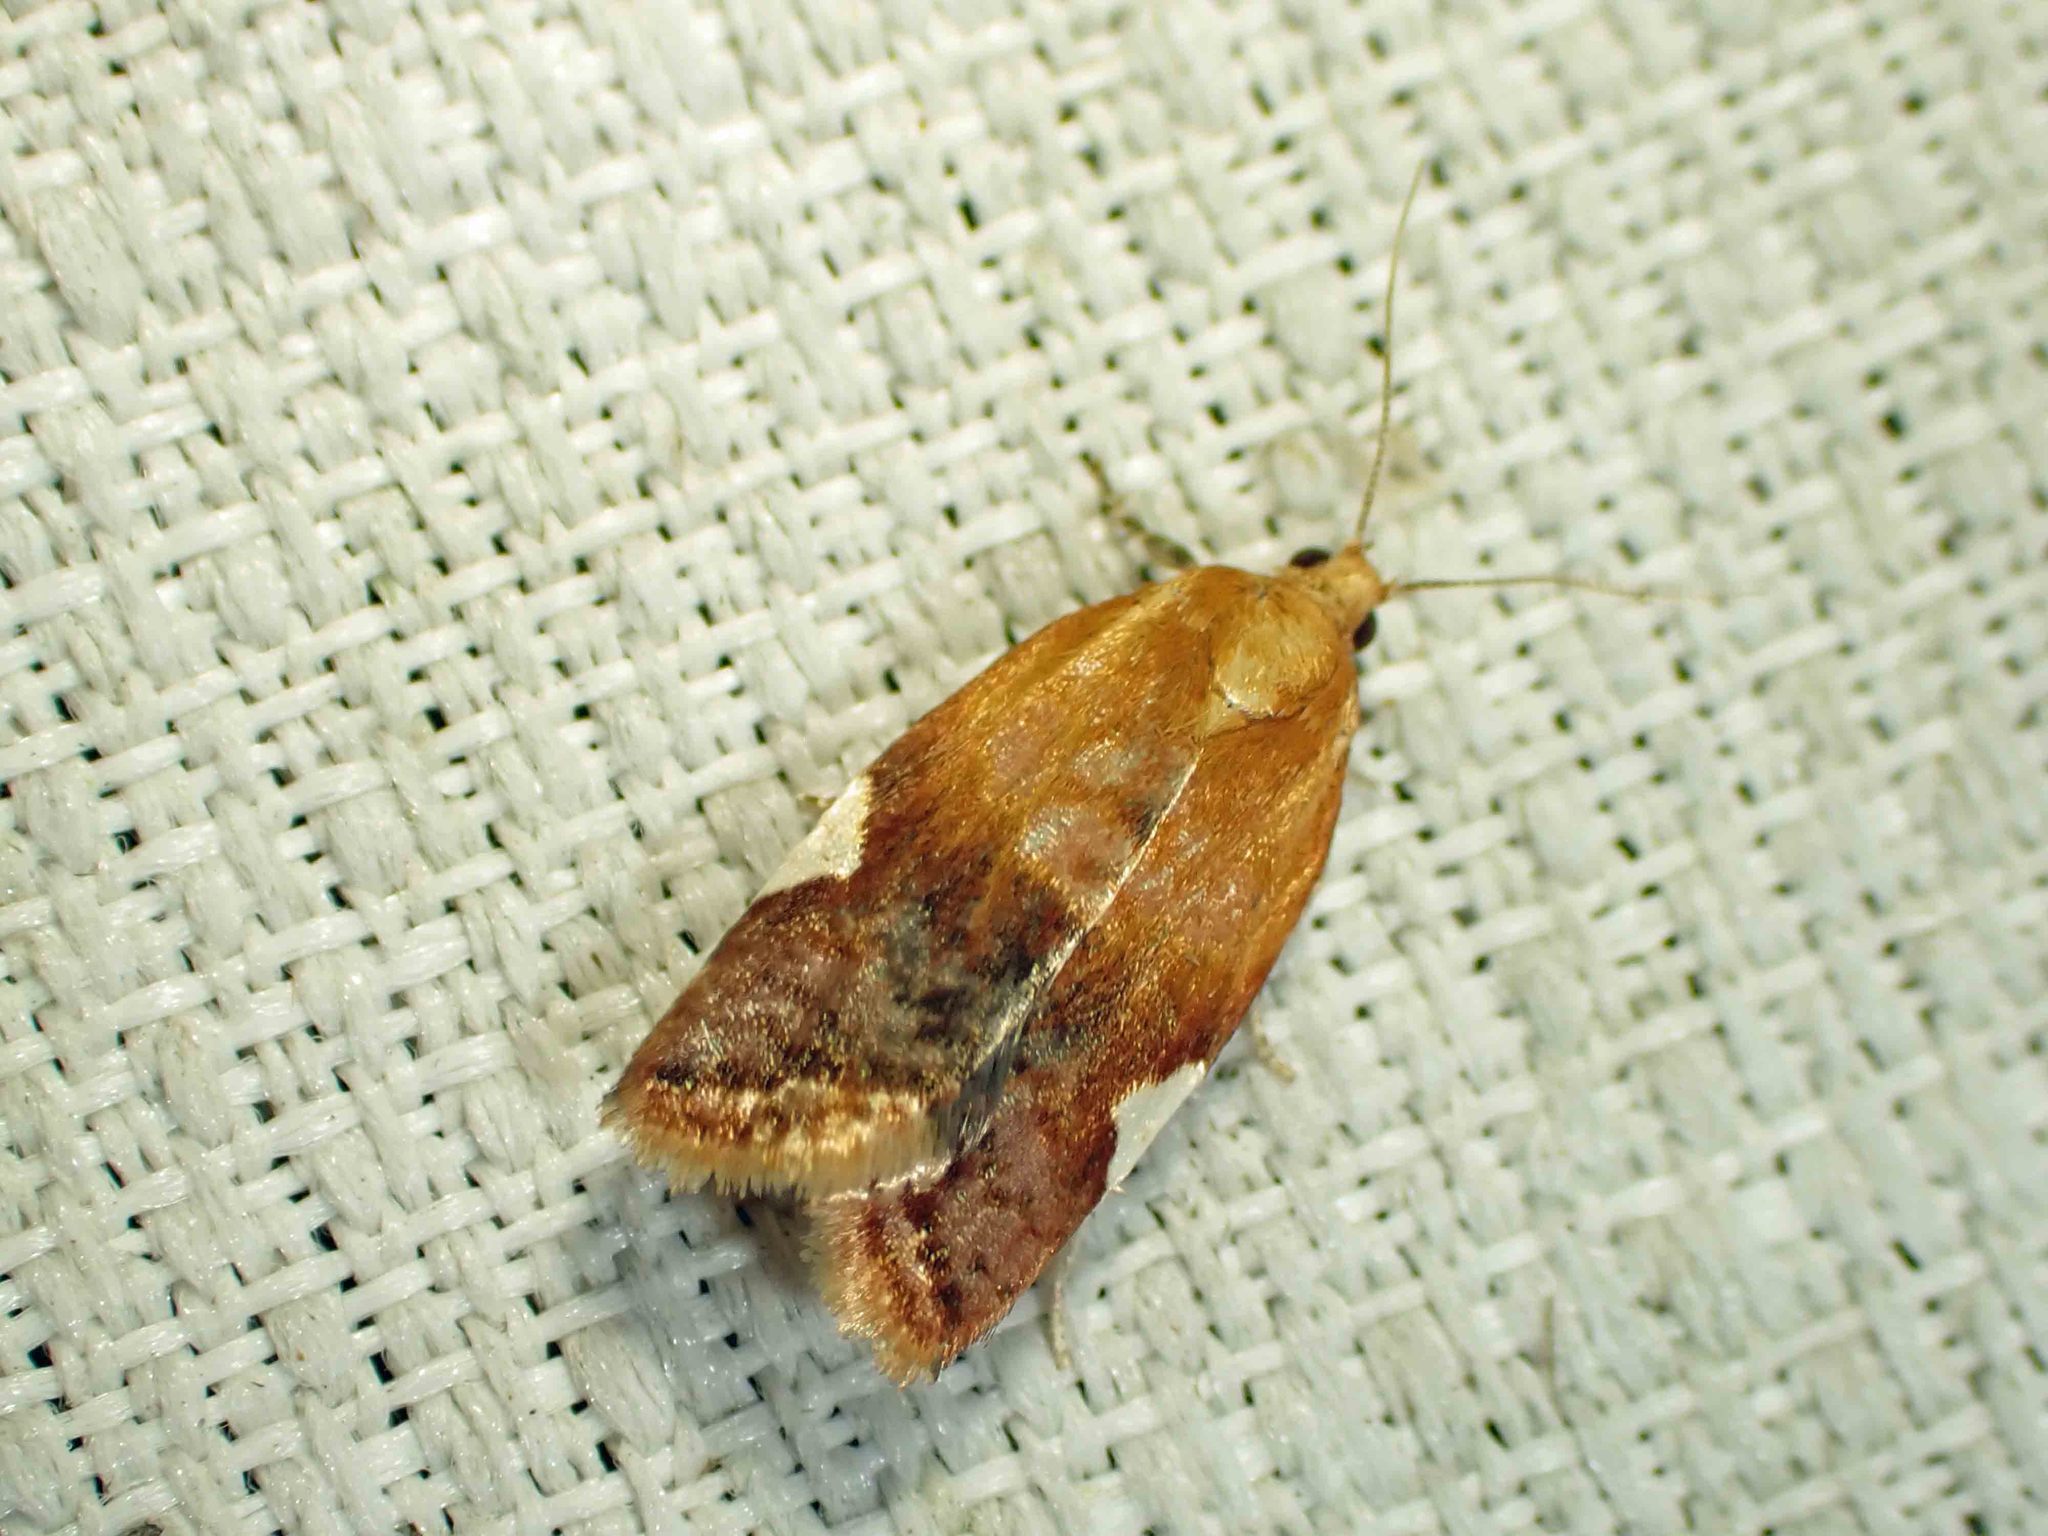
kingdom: Animalia
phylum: Arthropoda
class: Insecta
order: Lepidoptera
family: Tortricidae
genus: Clepsis
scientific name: Clepsis persicana
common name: White triangle tortrix
